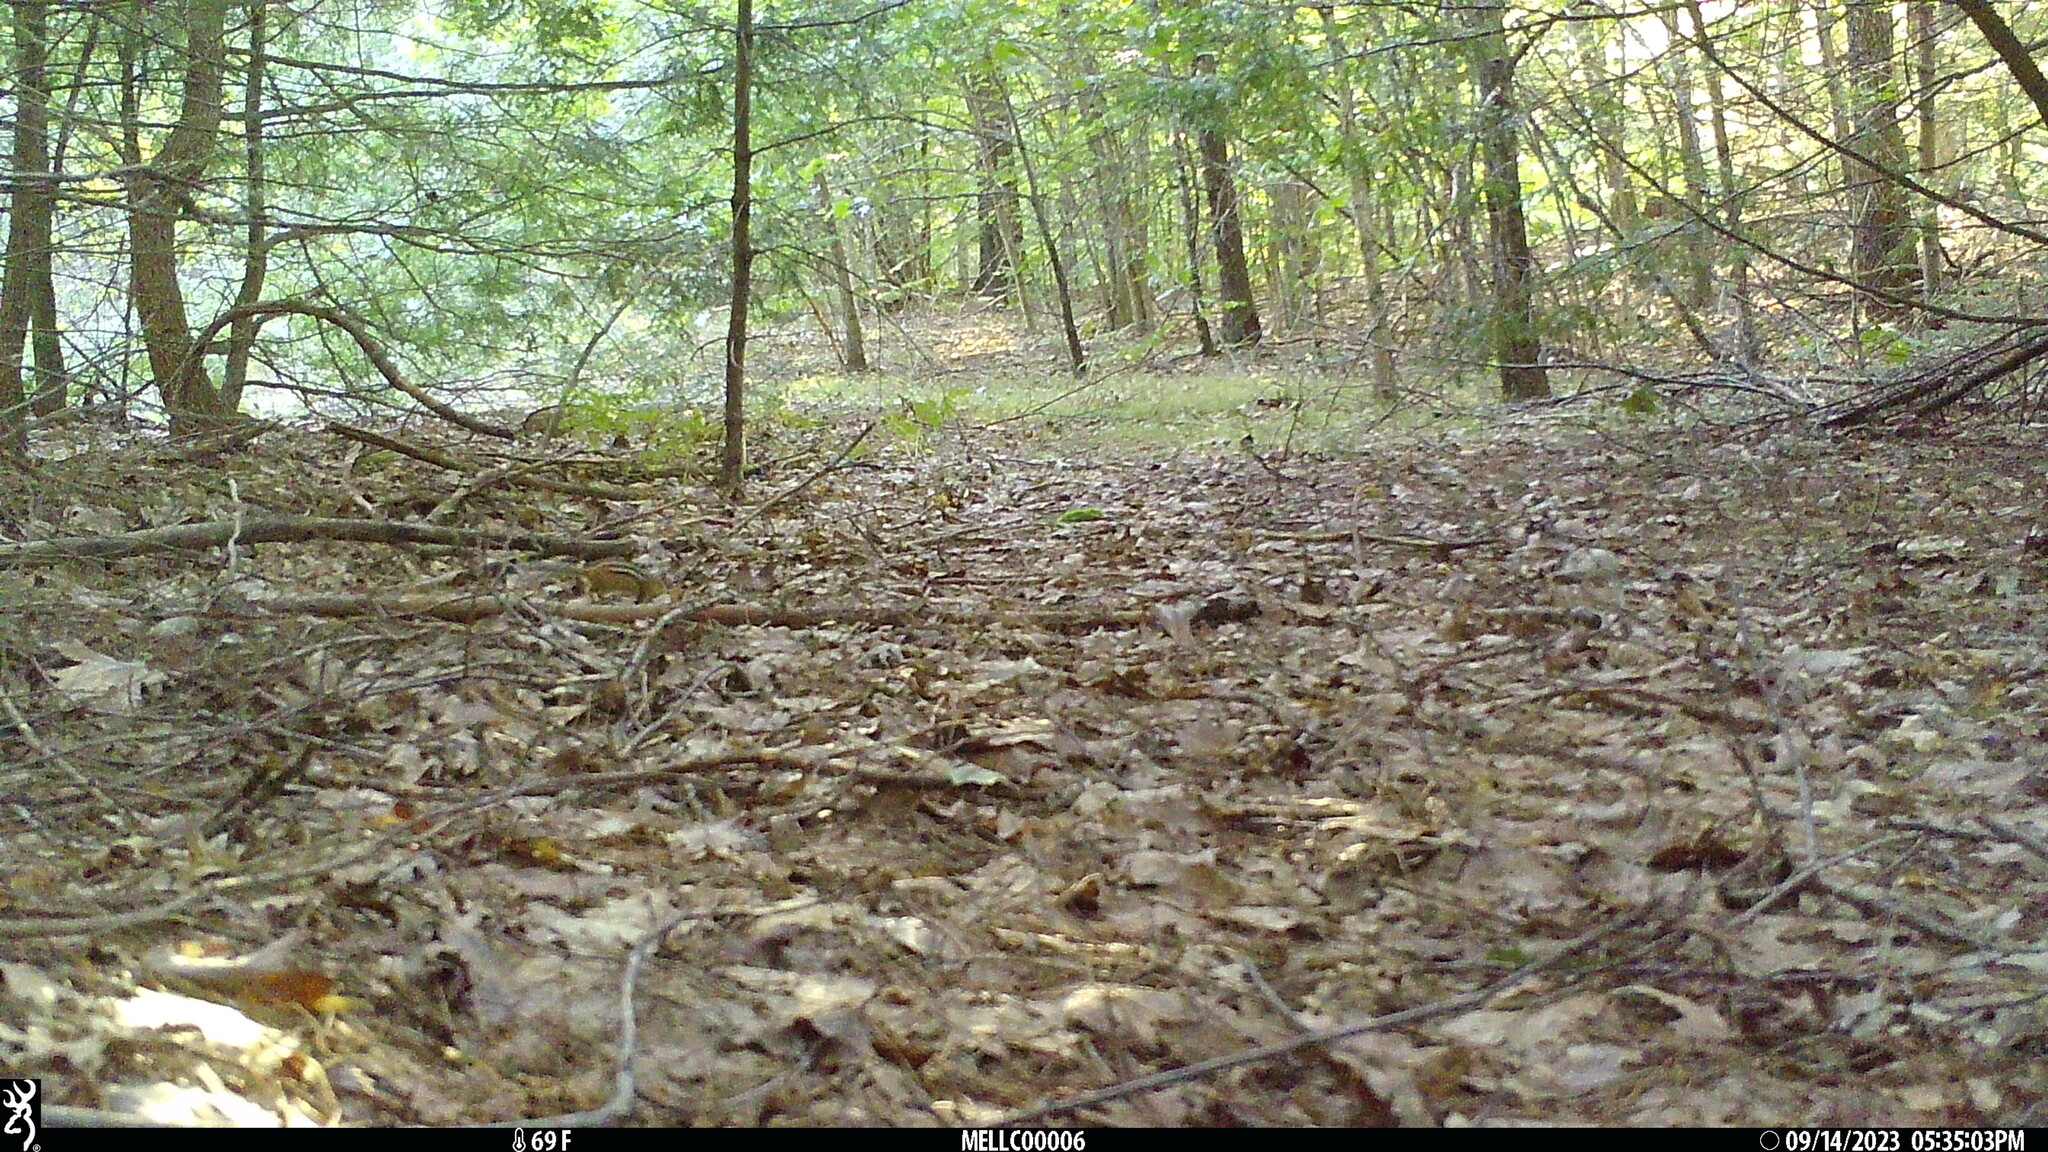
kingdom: Animalia
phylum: Chordata
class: Mammalia
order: Rodentia
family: Sciuridae
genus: Tamias
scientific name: Tamias striatus
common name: Eastern chipmunk
